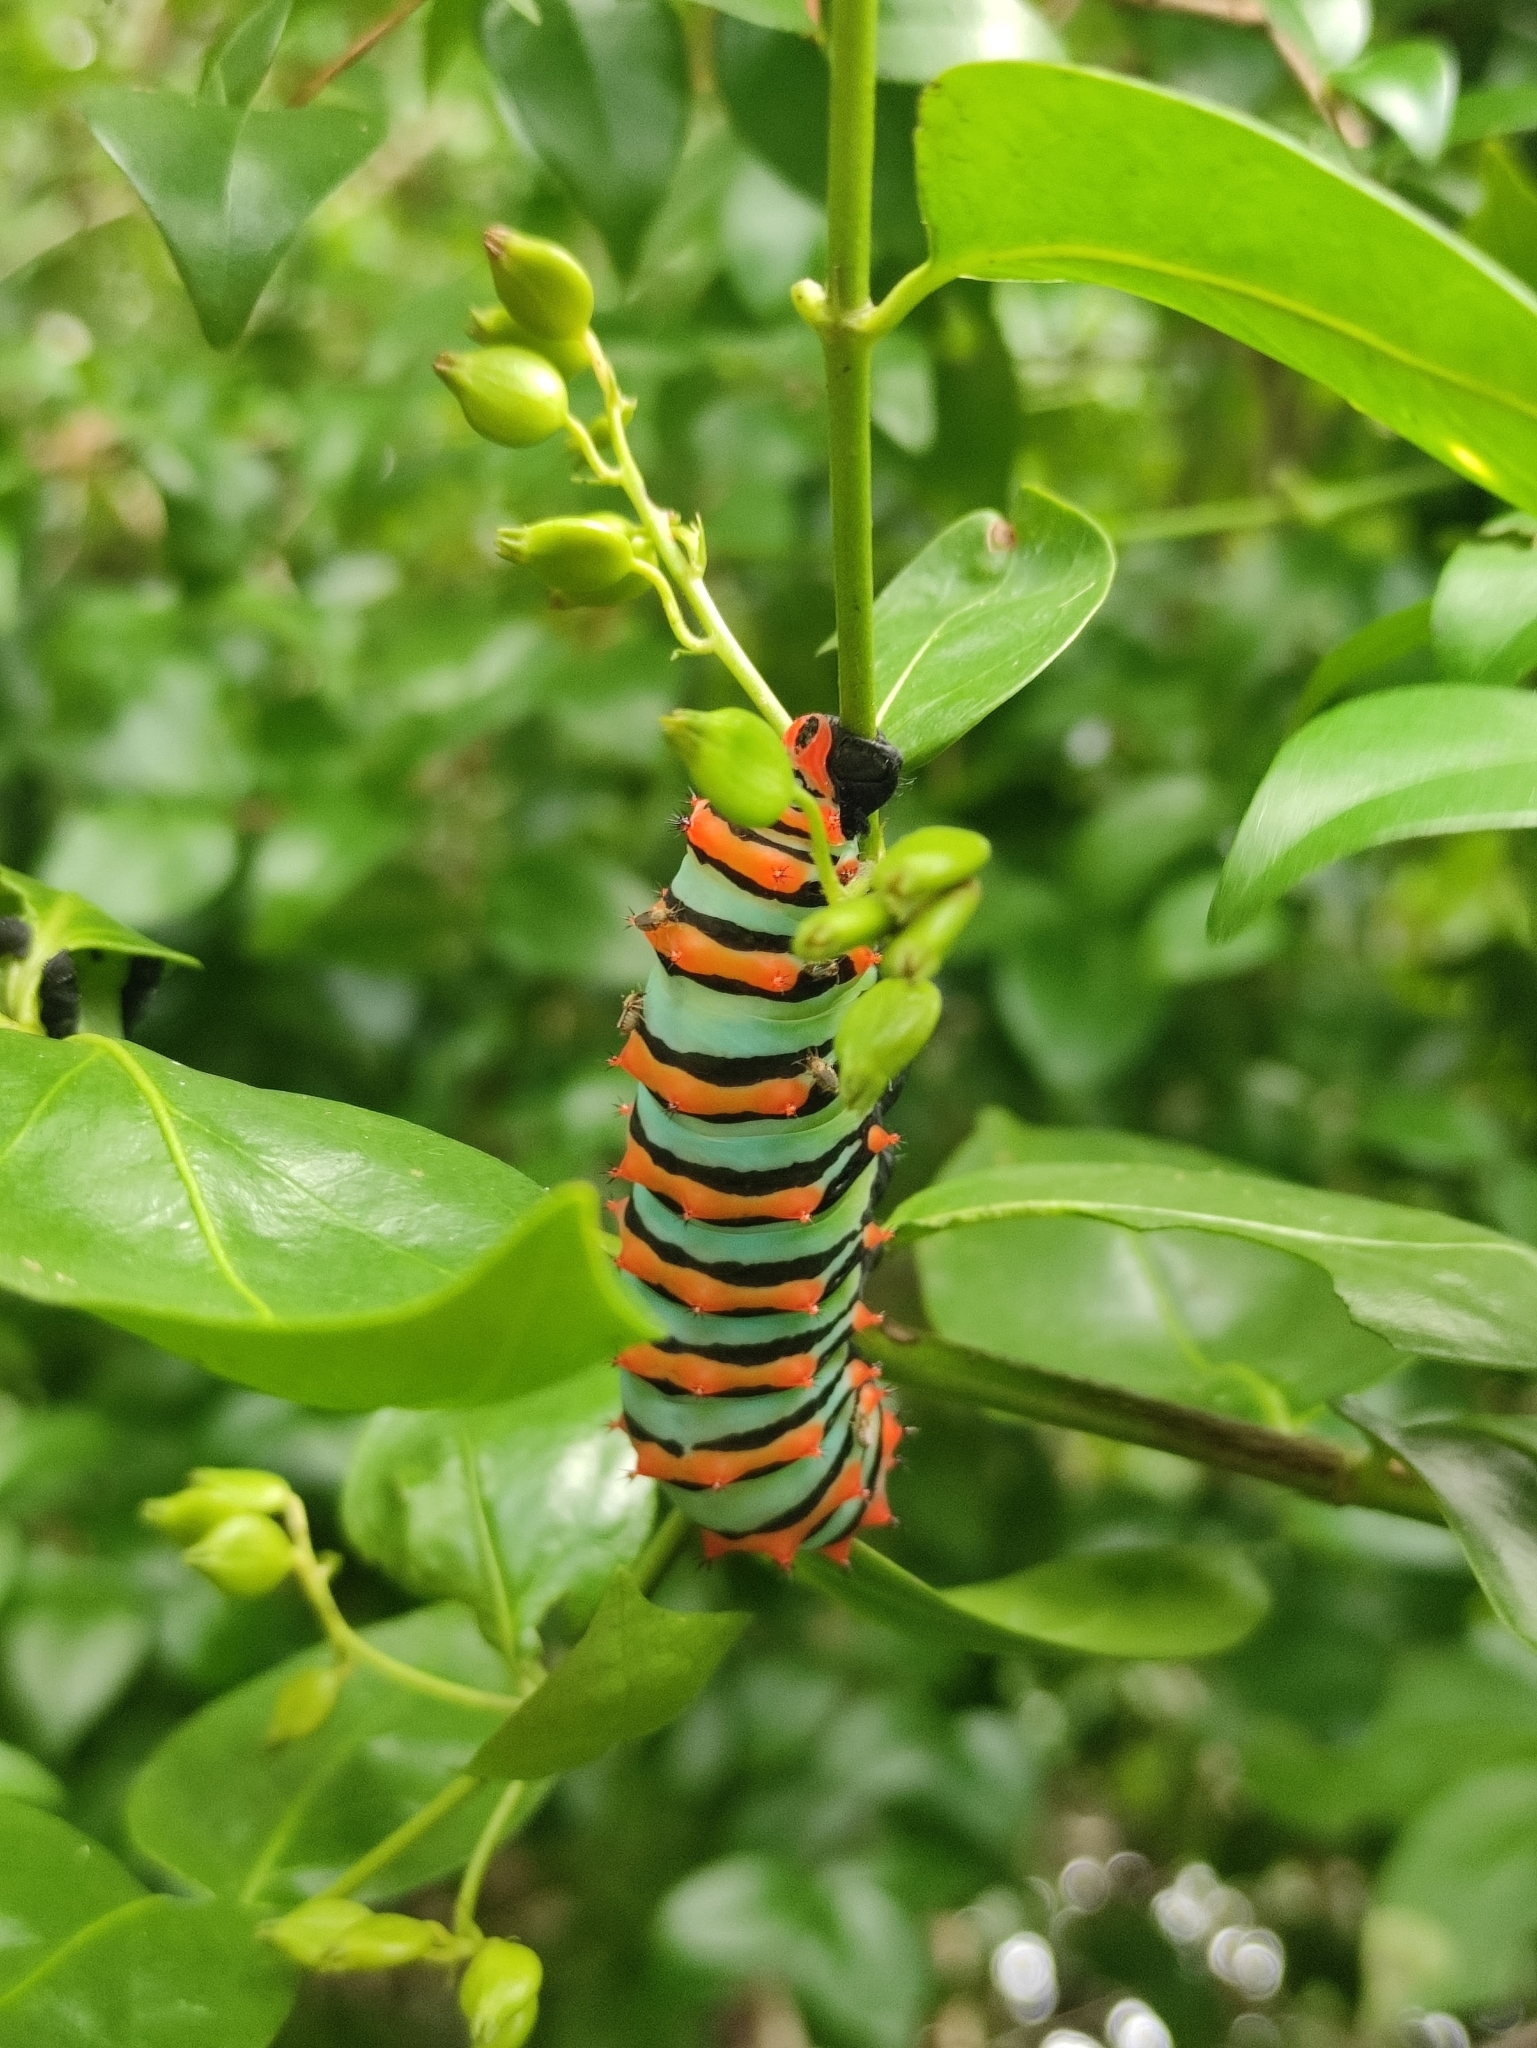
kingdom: Animalia
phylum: Arthropoda
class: Insecta
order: Lepidoptera
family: Saturniidae
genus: Rothschildia
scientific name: Rothschildia erycina
